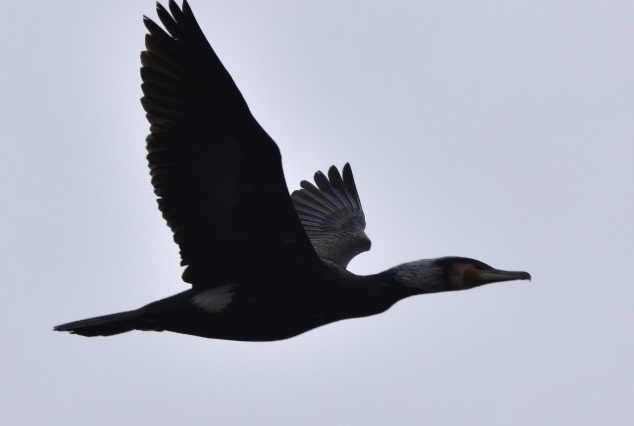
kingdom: Animalia
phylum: Chordata
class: Aves
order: Suliformes
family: Phalacrocoracidae
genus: Phalacrocorax
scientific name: Phalacrocorax carbo
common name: Great cormorant
